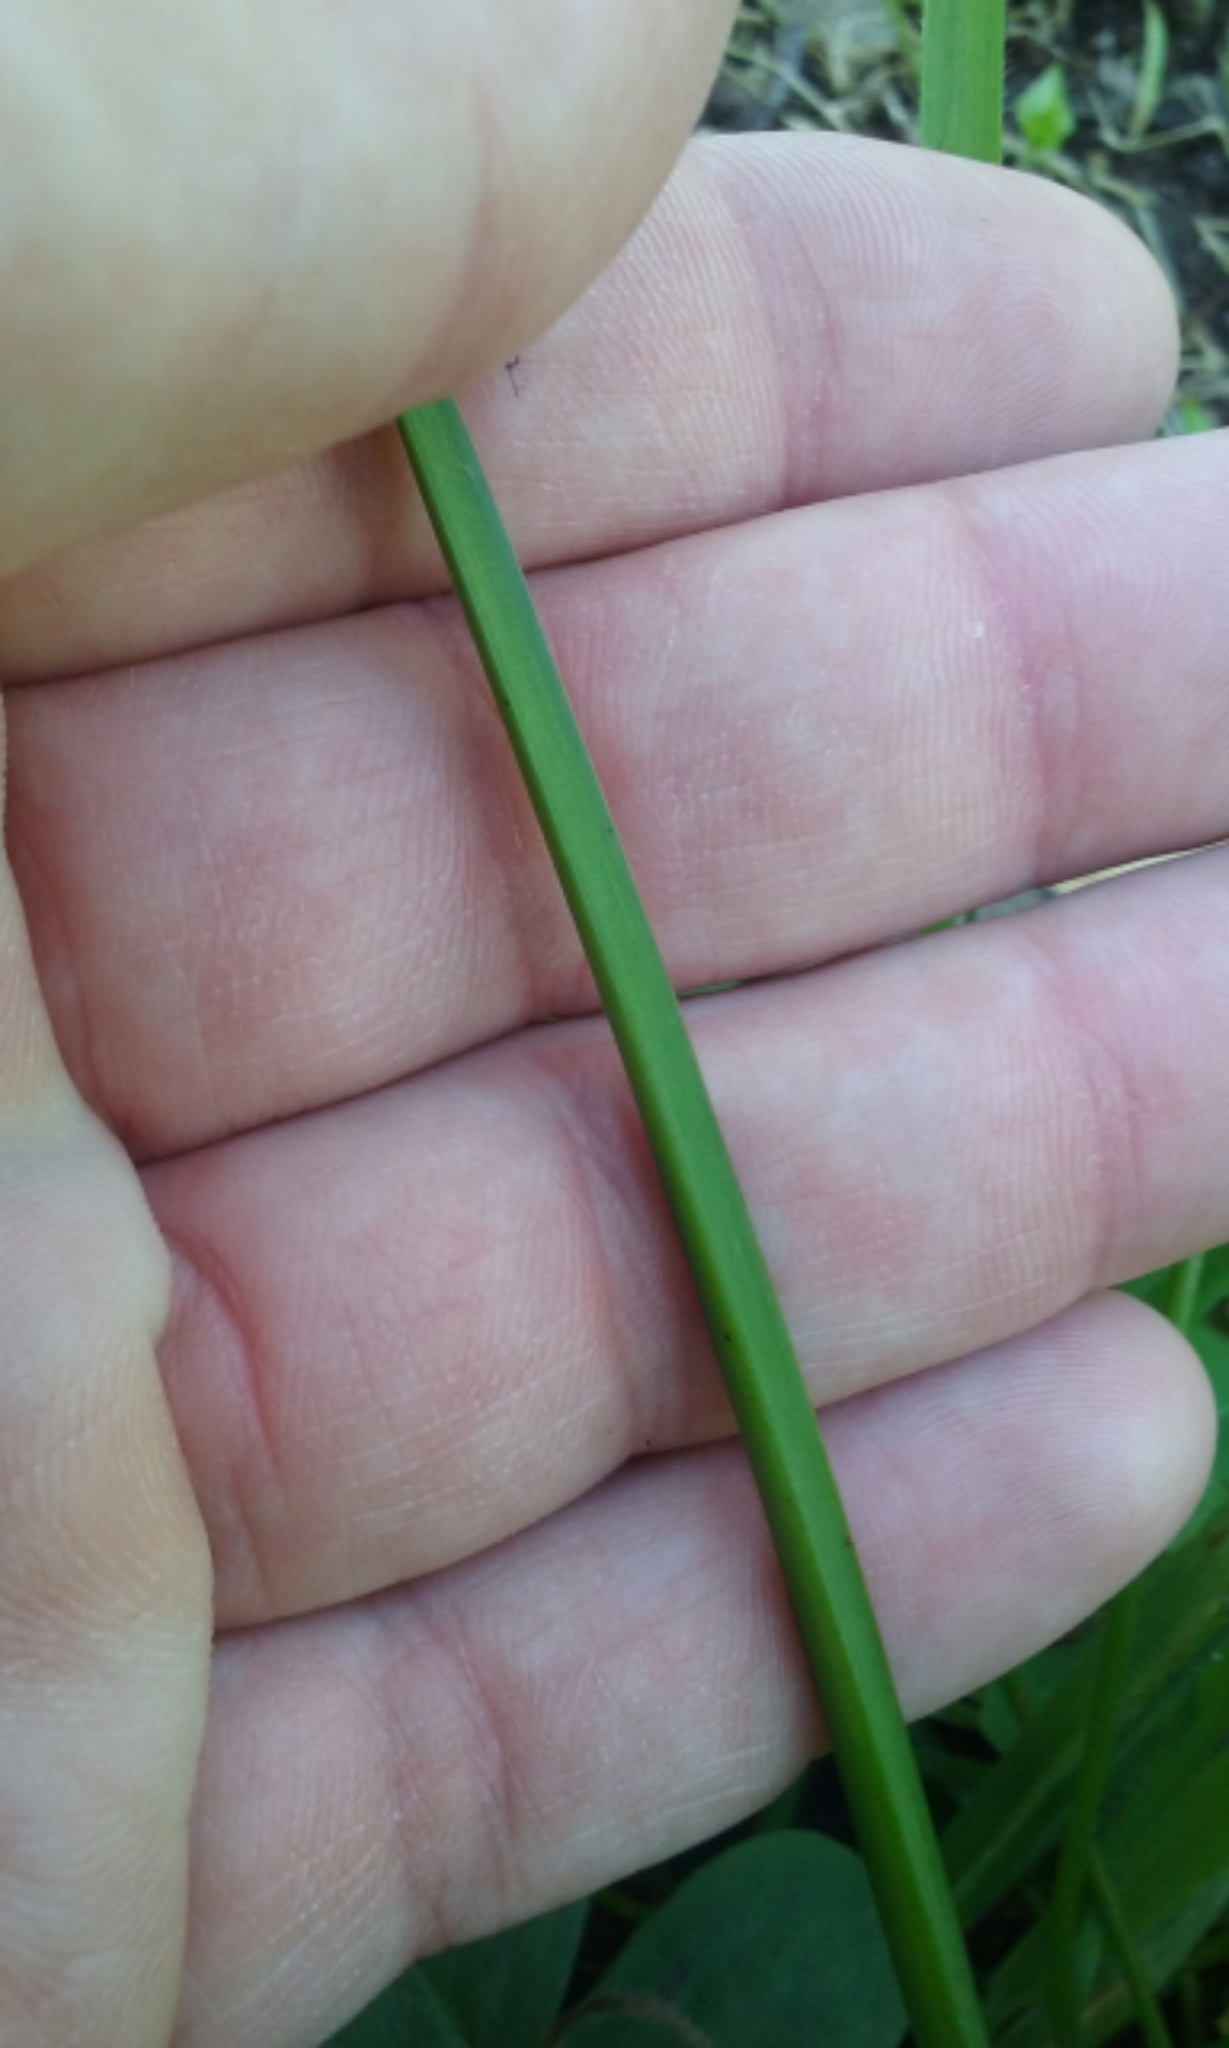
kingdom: Plantae
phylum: Tracheophyta
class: Liliopsida
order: Asparagales
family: Amaryllidaceae
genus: Allium
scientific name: Allium triquetrum
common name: Three-cornered garlic
